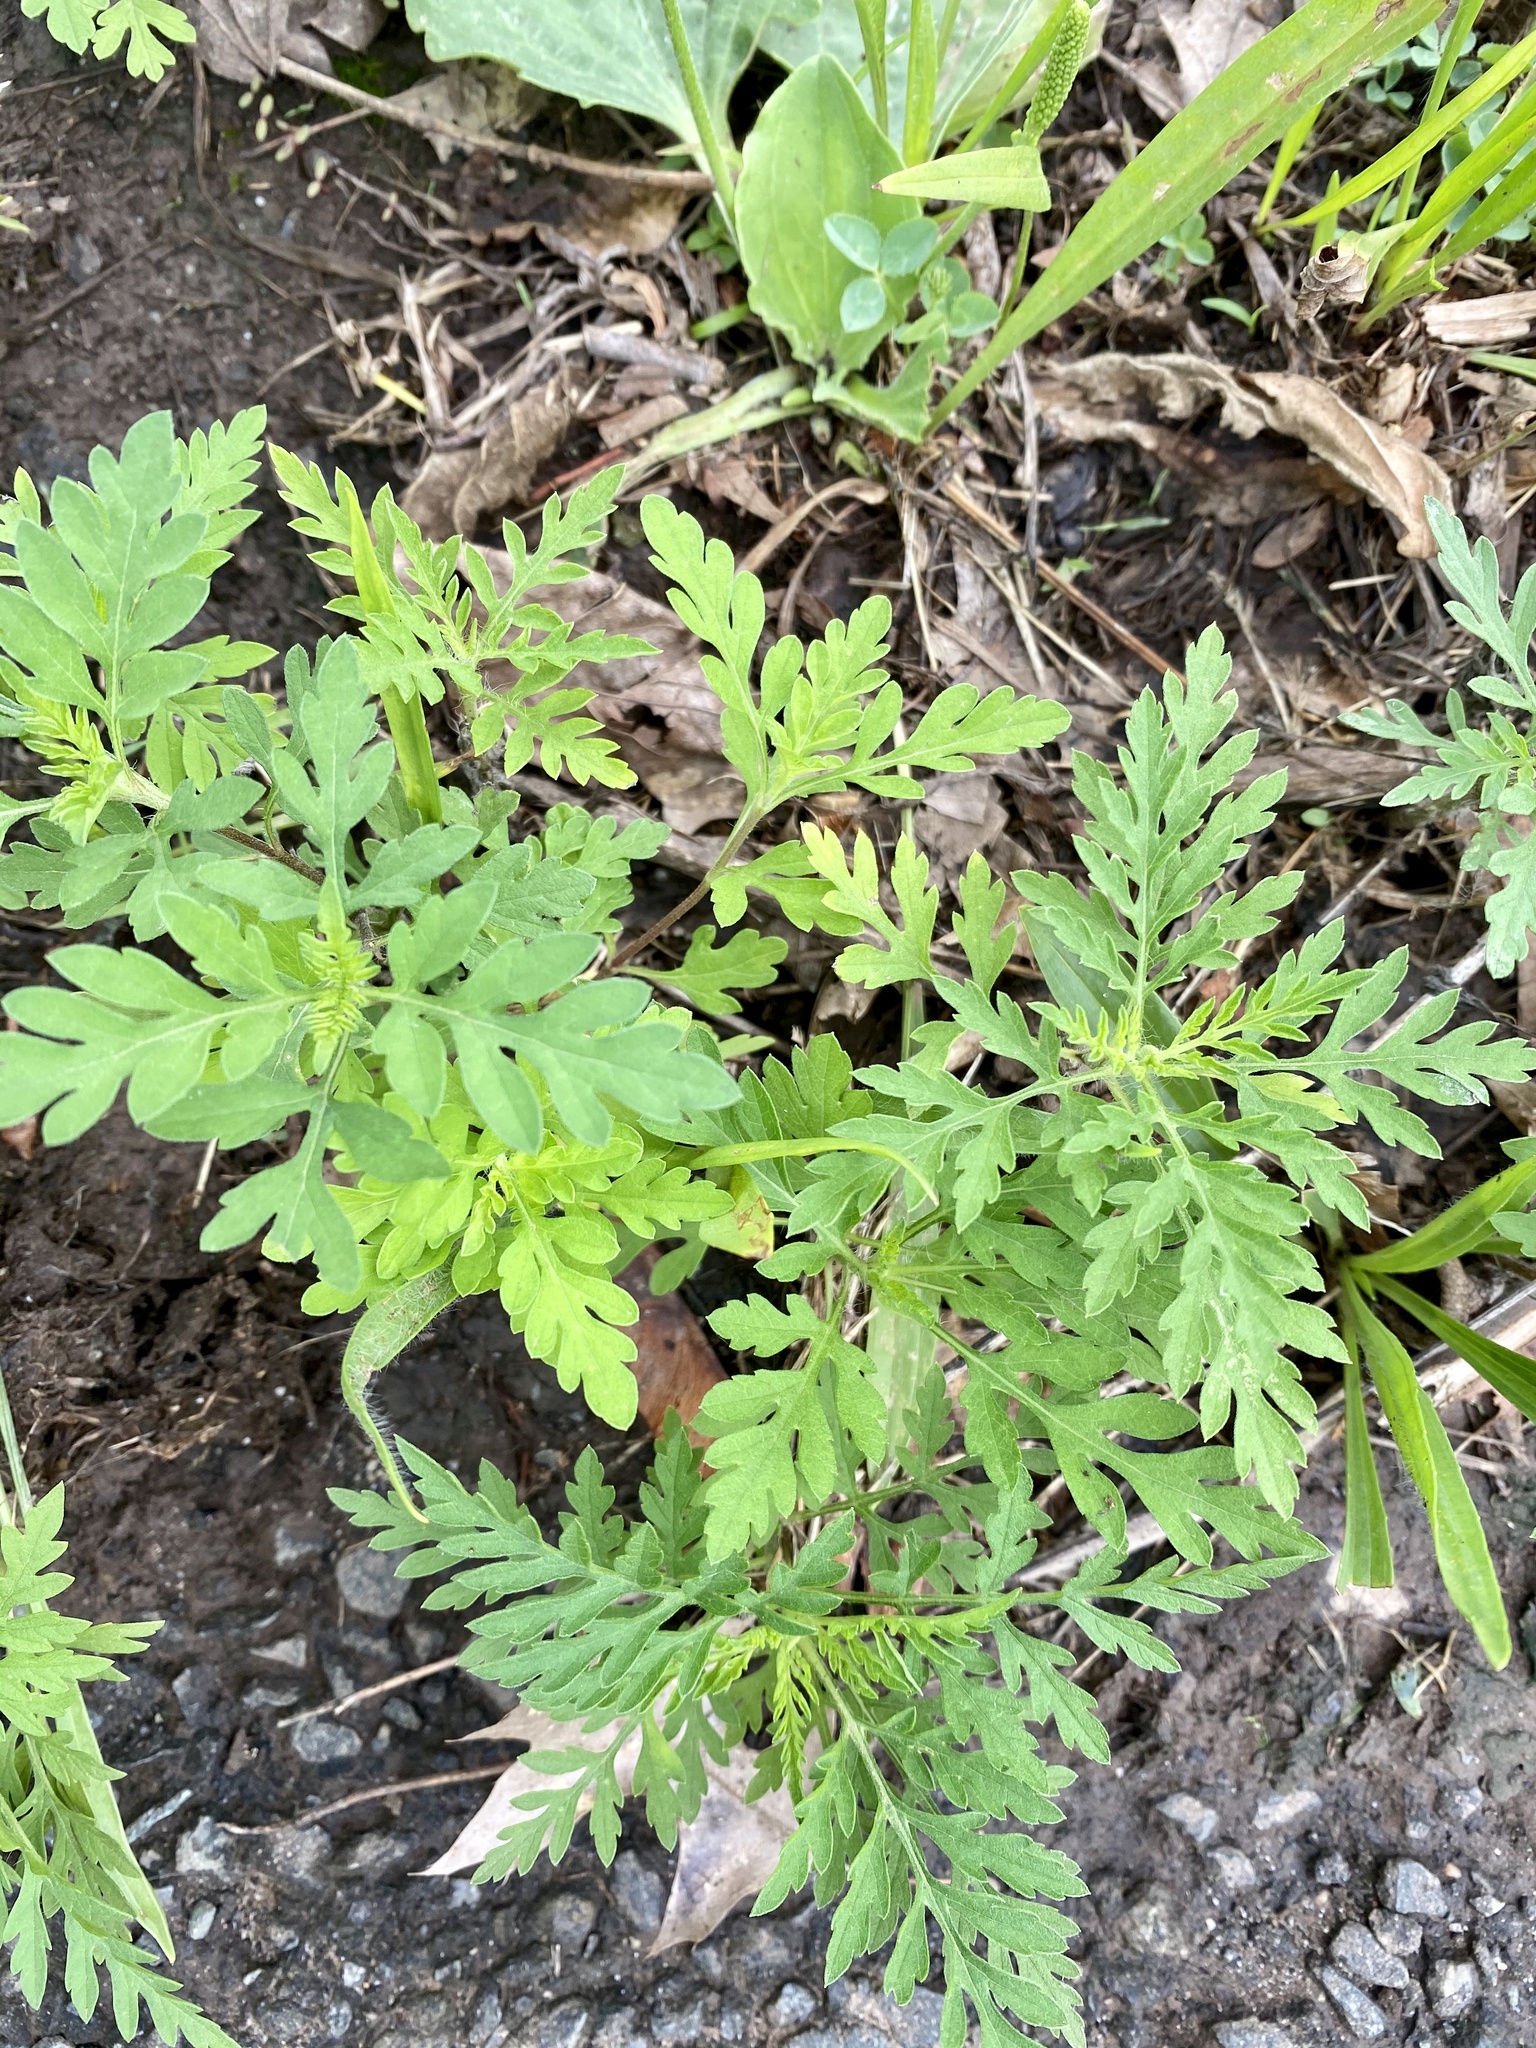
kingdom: Plantae
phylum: Tracheophyta
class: Magnoliopsida
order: Asterales
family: Asteraceae
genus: Ambrosia
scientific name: Ambrosia artemisiifolia
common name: Annual ragweed
